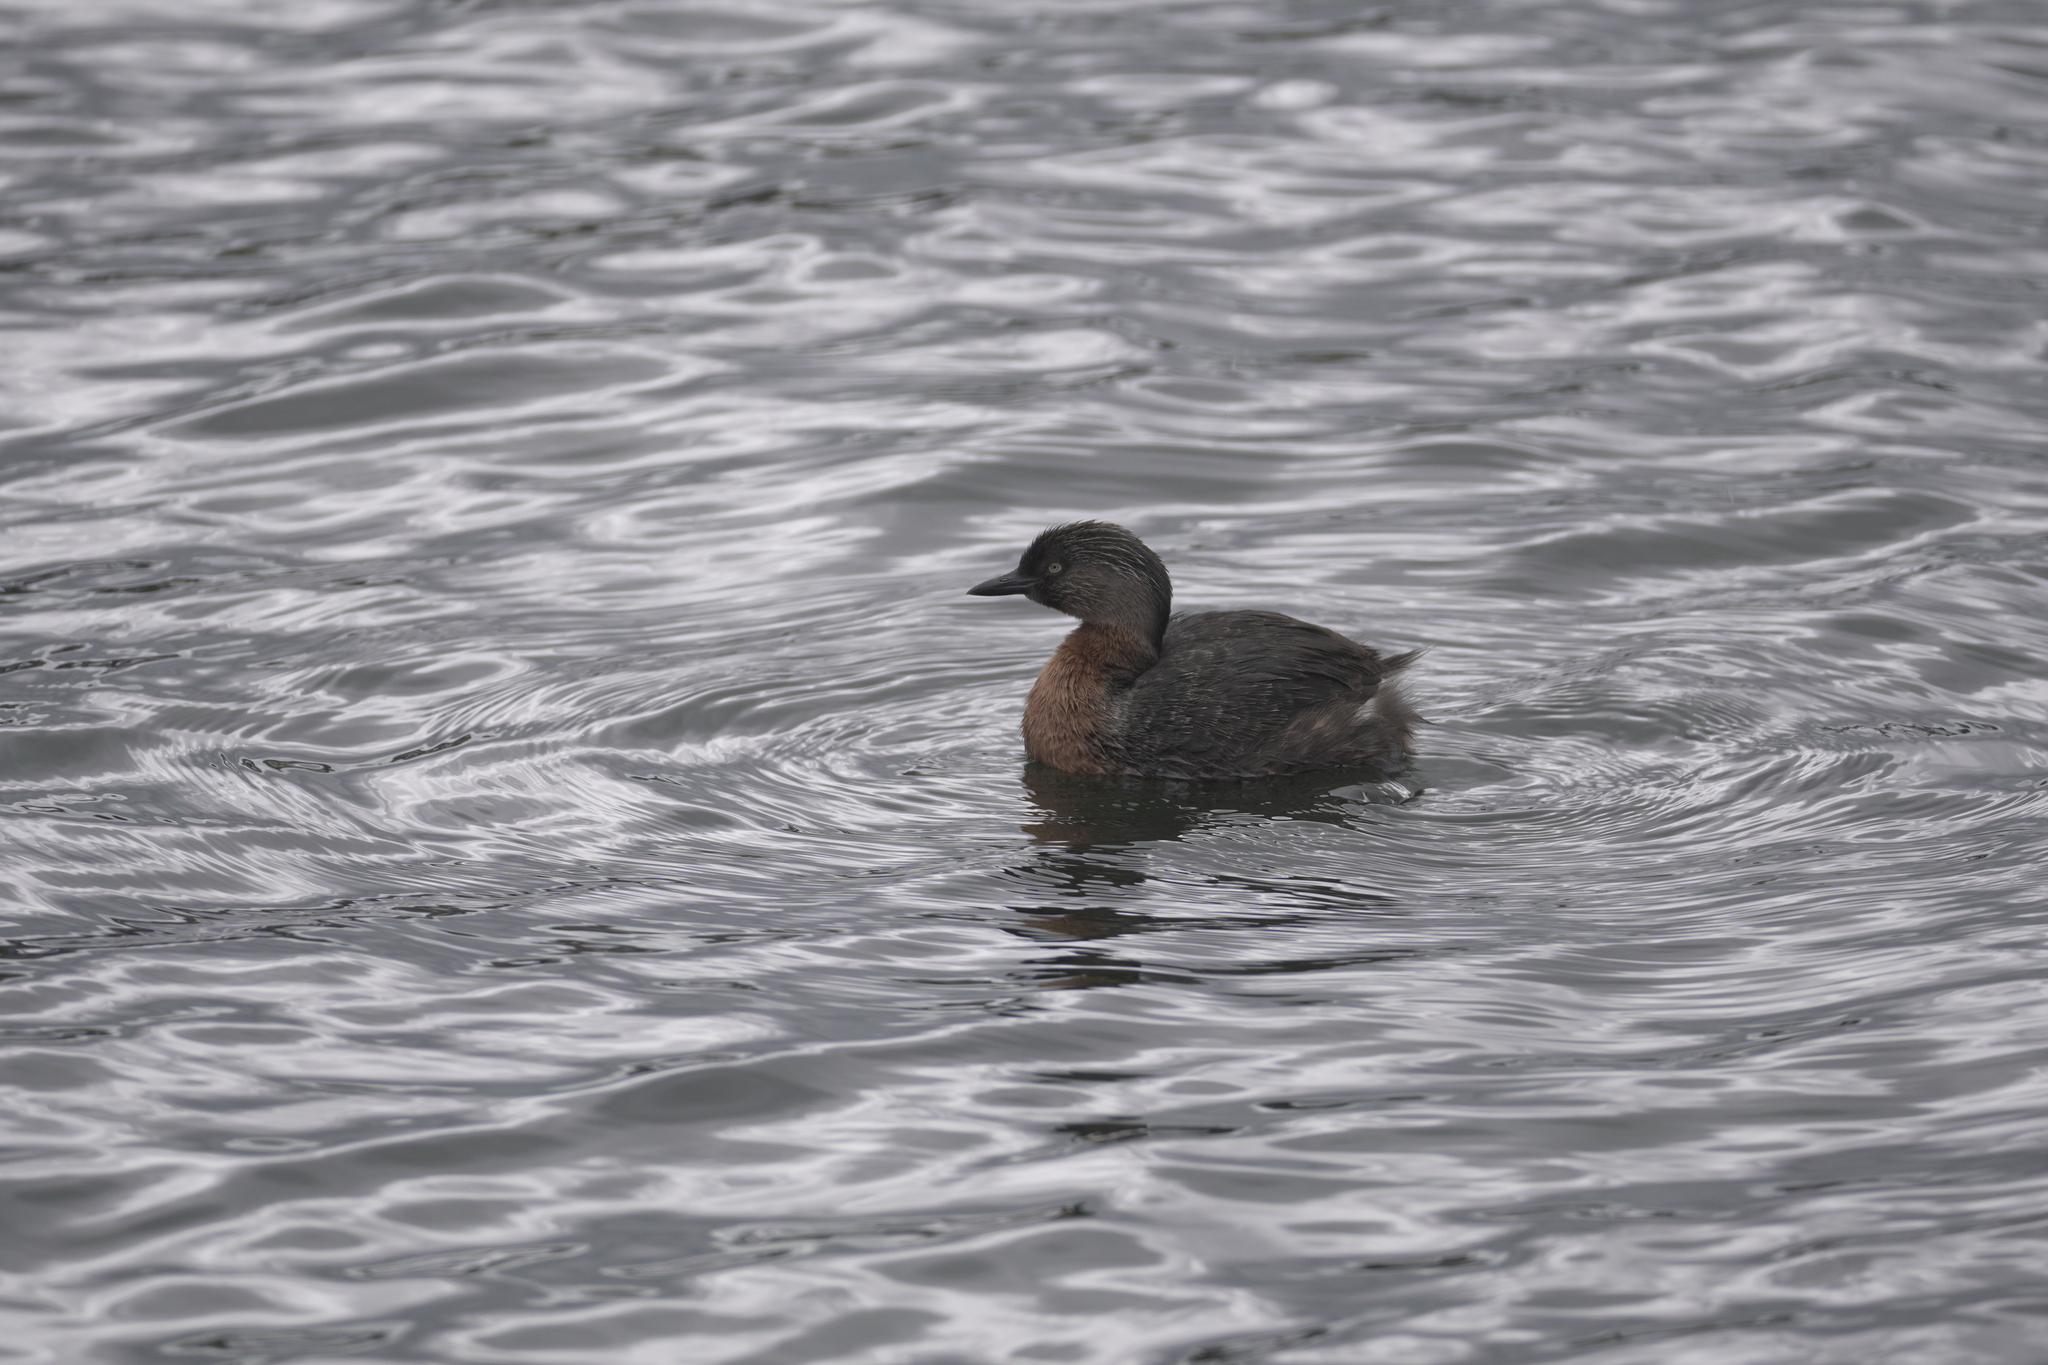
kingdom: Animalia
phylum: Chordata
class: Aves
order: Podicipediformes
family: Podicipedidae
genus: Poliocephalus
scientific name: Poliocephalus rufopectus
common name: New zealand grebe
